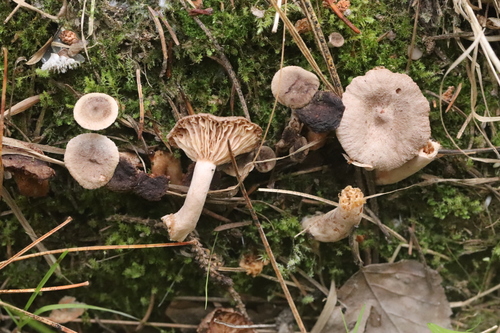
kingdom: Fungi
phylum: Basidiomycota
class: Agaricomycetes
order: Russulales
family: Russulaceae
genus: Lactarius
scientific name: Lactarius glyciosmus
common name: Coconut milkcap
